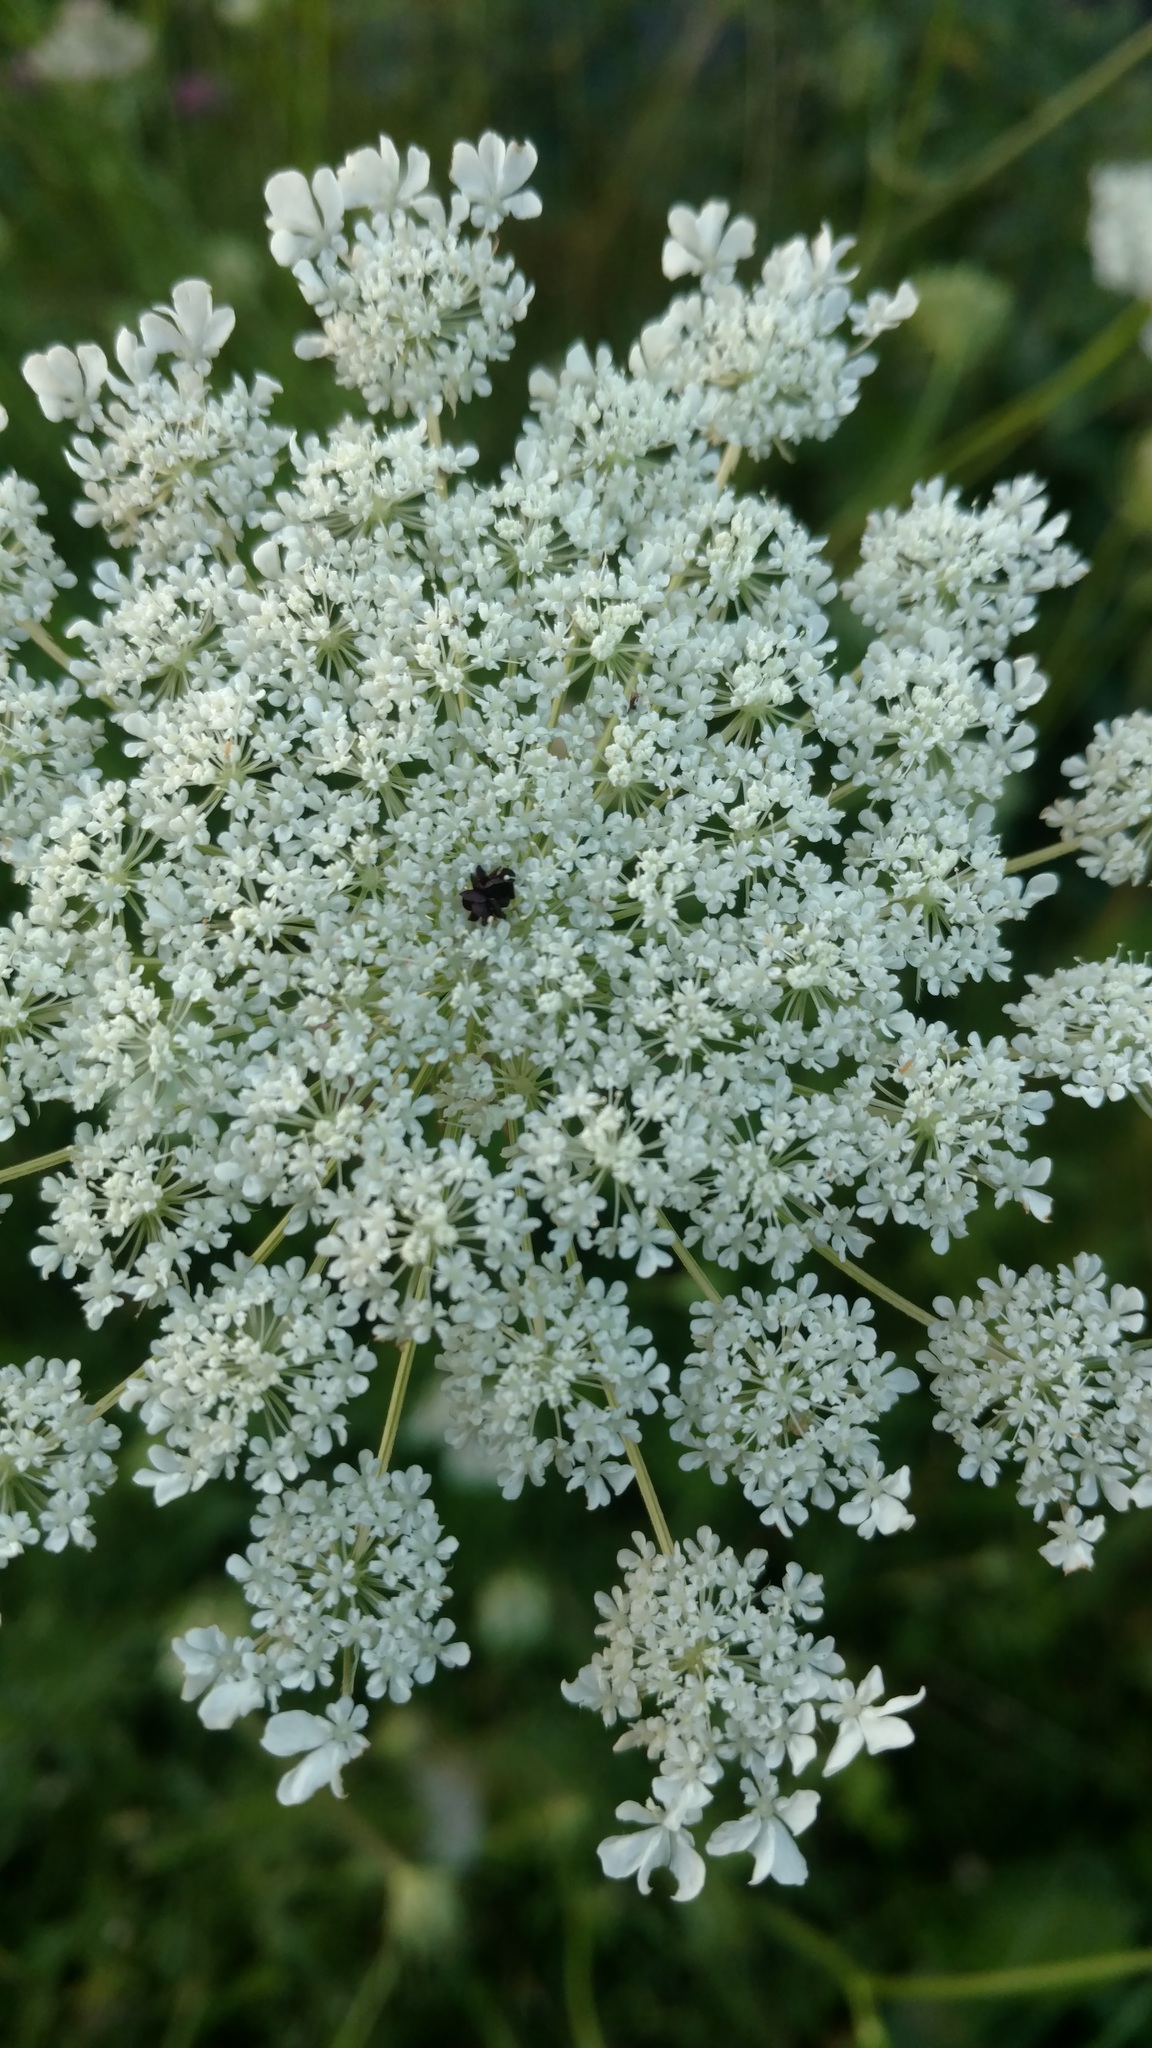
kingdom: Plantae
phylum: Tracheophyta
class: Magnoliopsida
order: Apiales
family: Apiaceae
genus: Daucus
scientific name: Daucus carota
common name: Wild carrot
